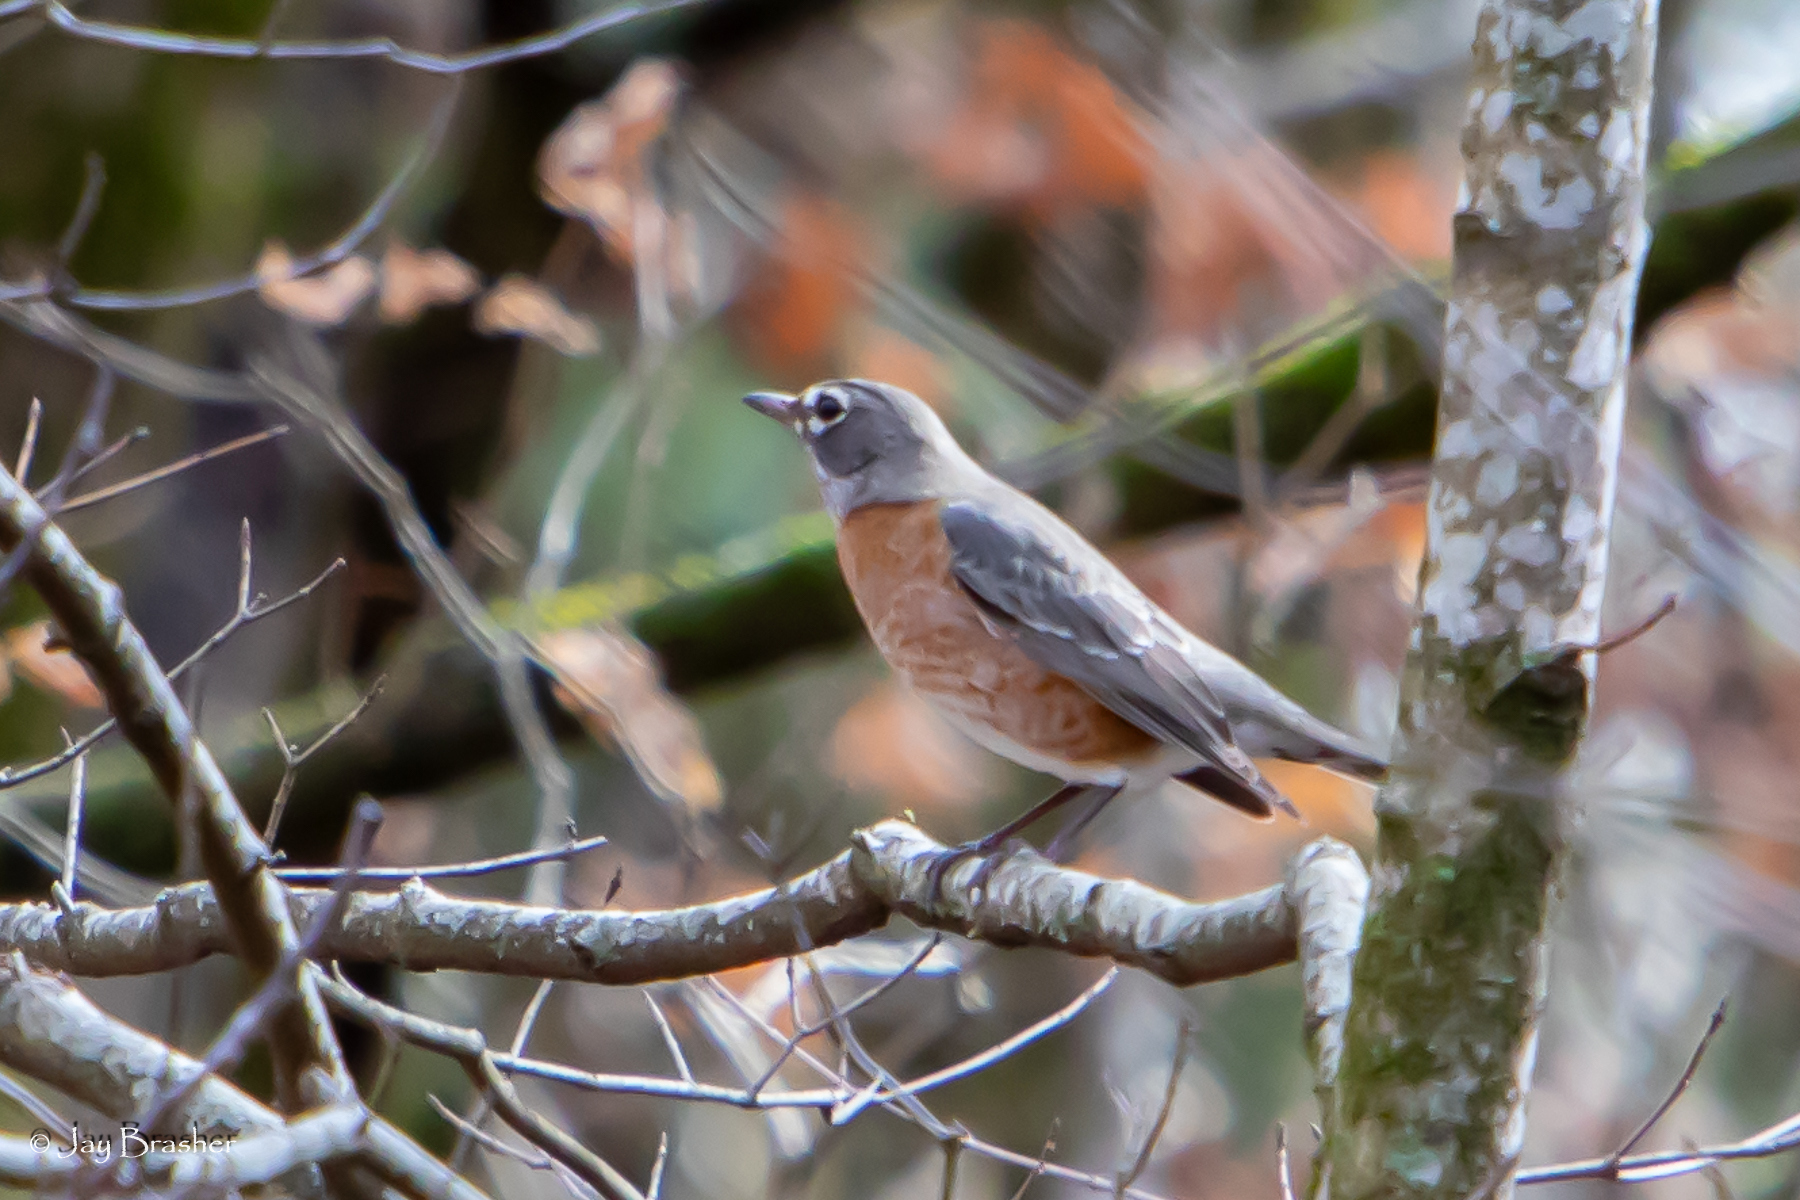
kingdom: Animalia
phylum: Chordata
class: Aves
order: Passeriformes
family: Turdidae
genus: Turdus
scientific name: Turdus migratorius
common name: American robin
